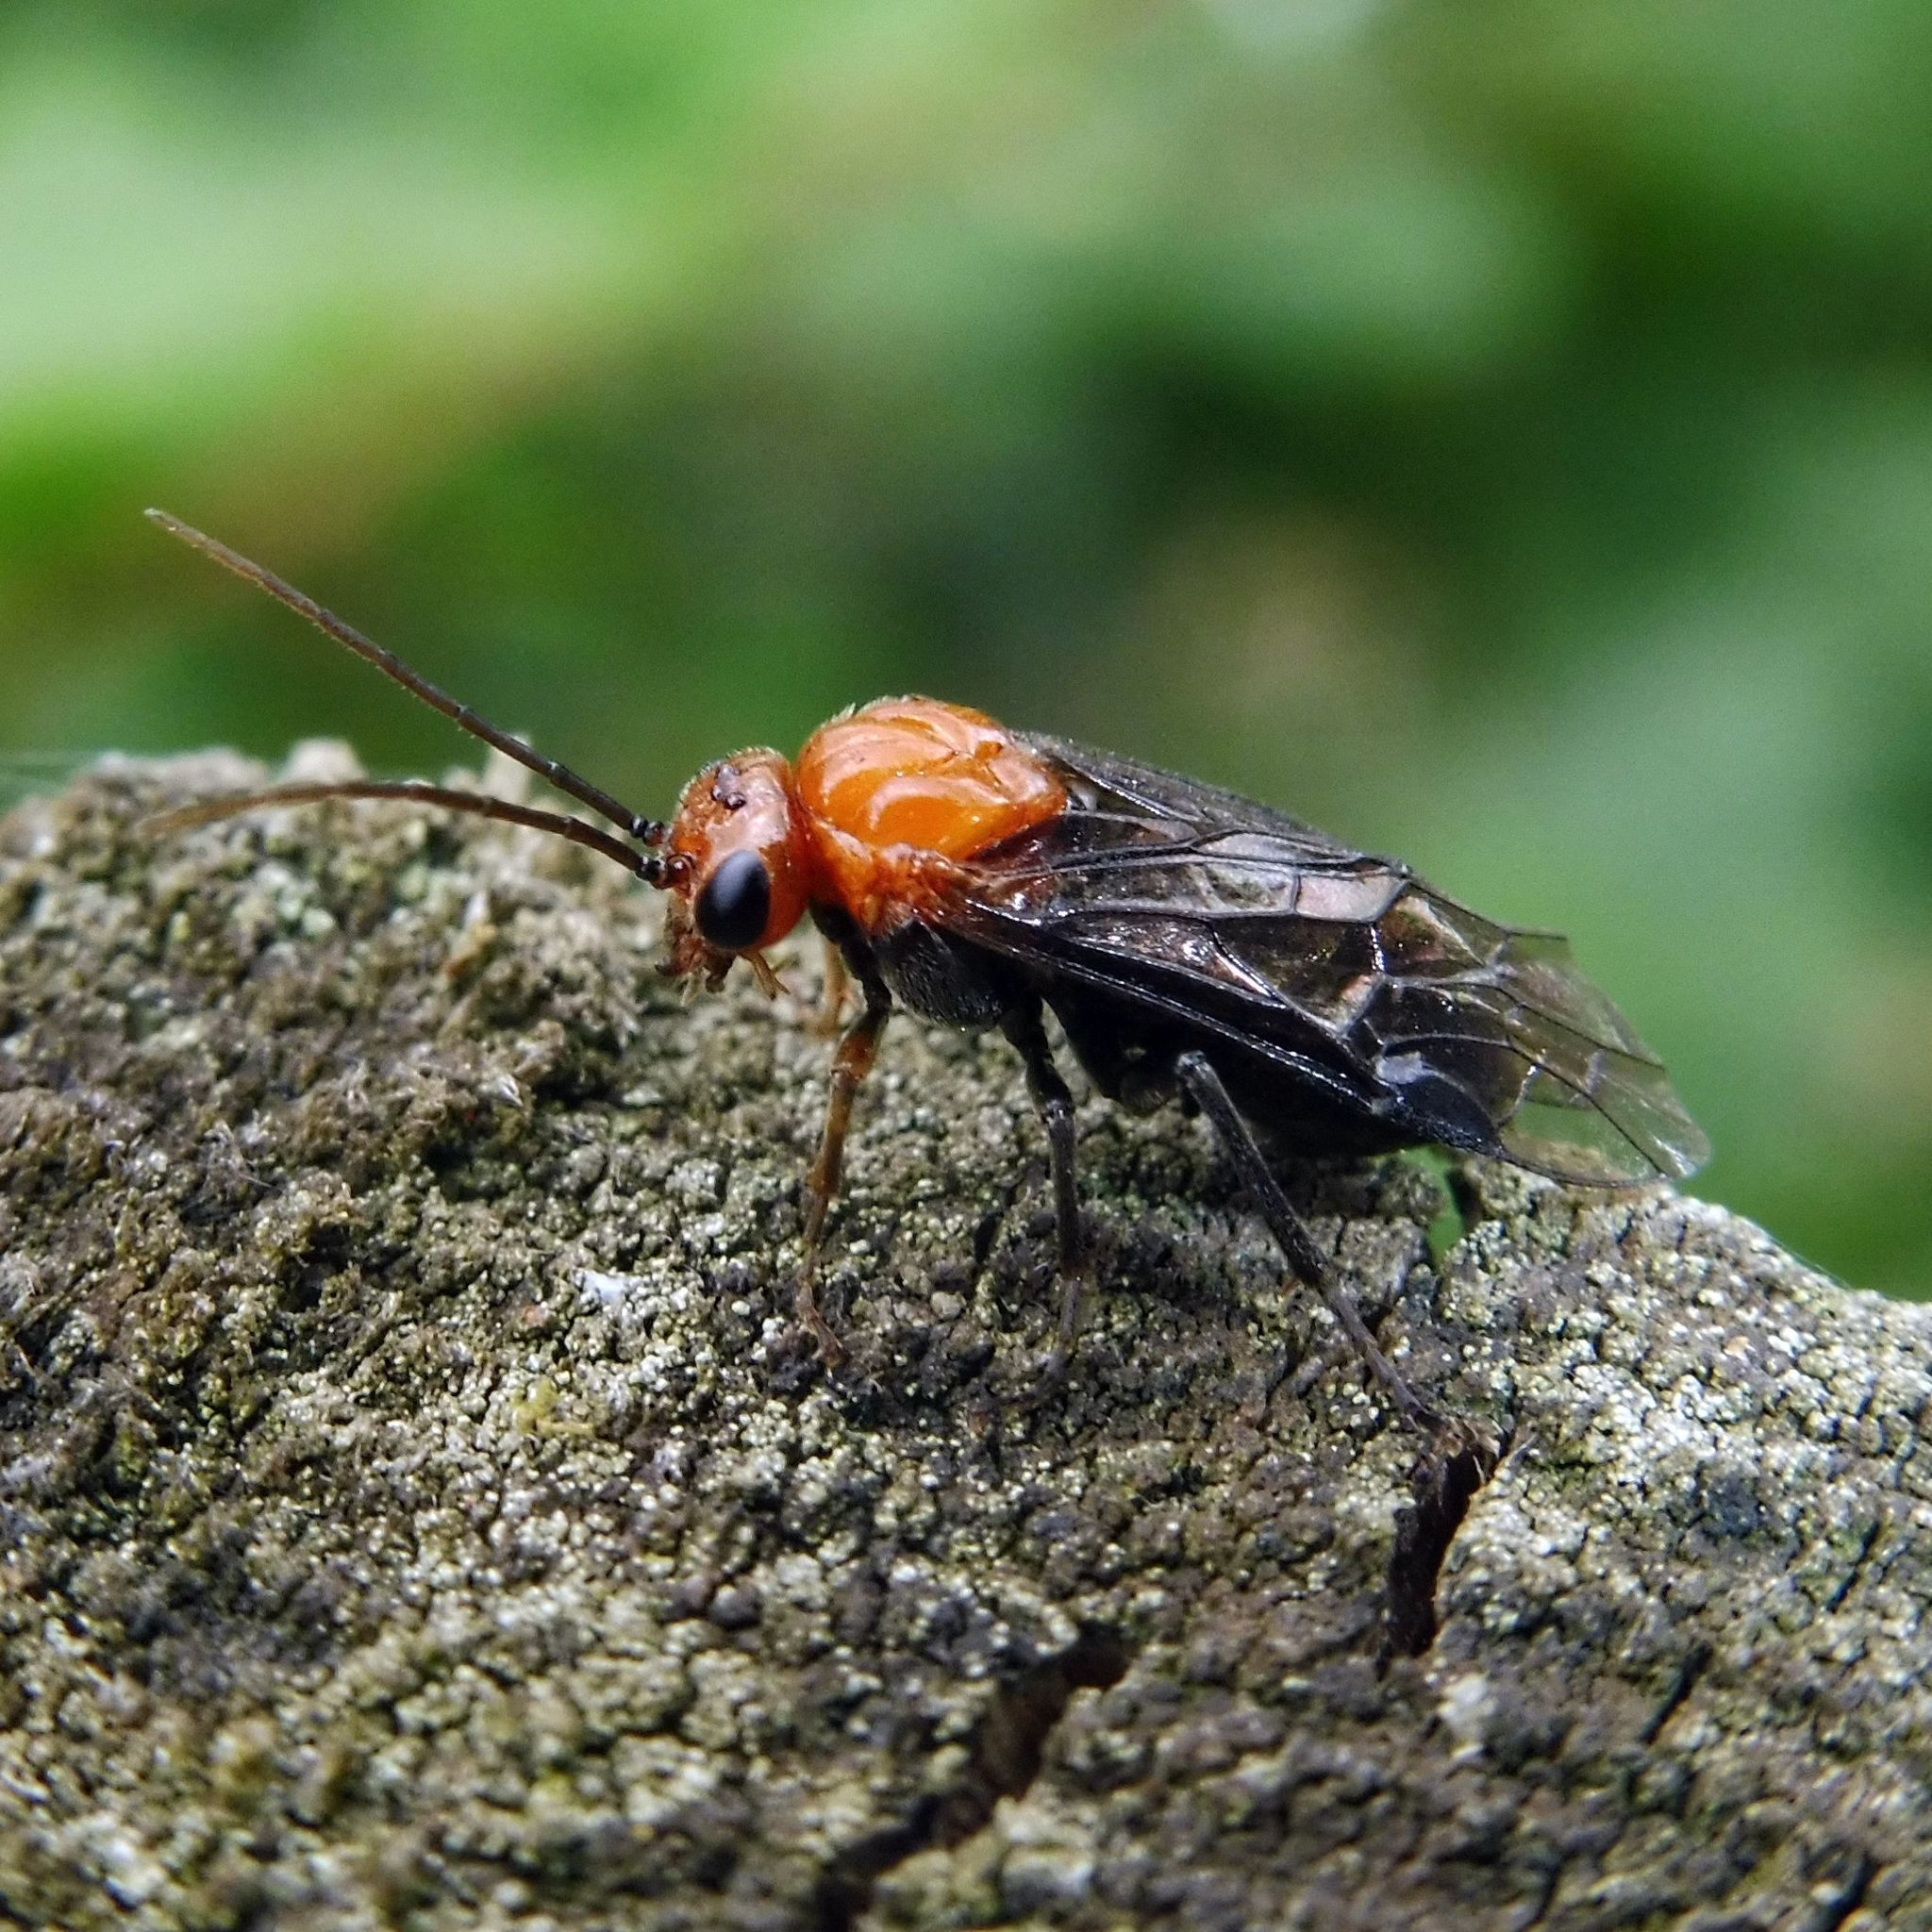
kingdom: Animalia
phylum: Arthropoda
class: Insecta
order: Hymenoptera
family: Tenthredinidae
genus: Hemichroa
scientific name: Hemichroa australis
